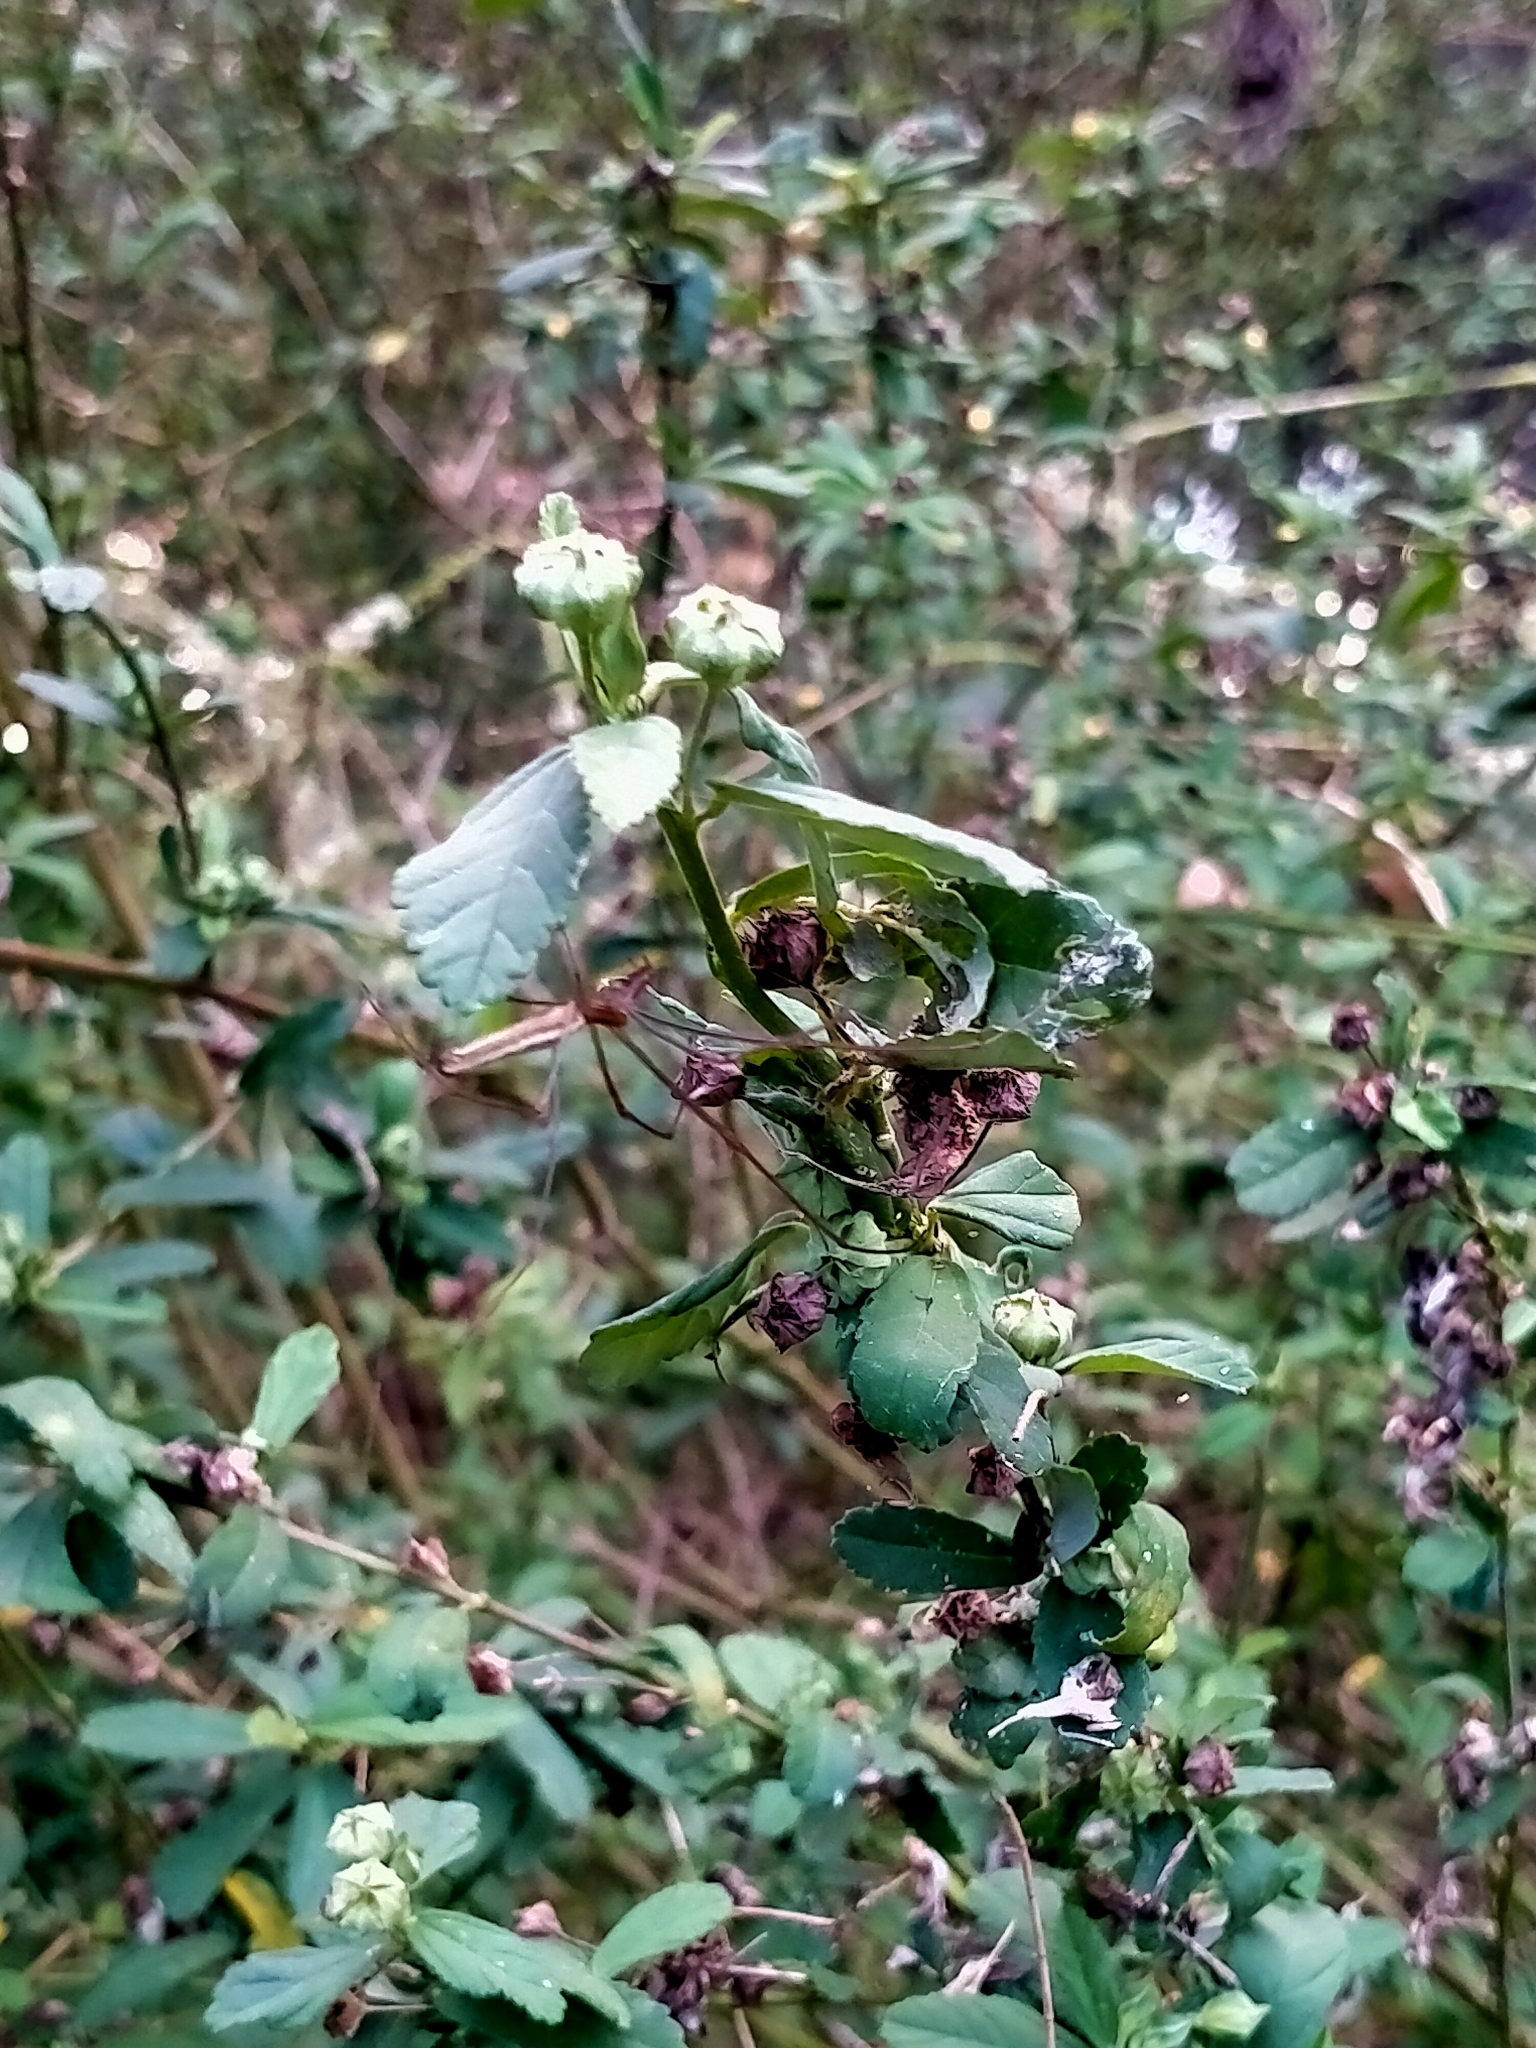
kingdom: Plantae
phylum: Tracheophyta
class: Magnoliopsida
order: Malvales
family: Malvaceae
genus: Sida
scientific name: Sida rhombifolia
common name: Queensland-hemp
